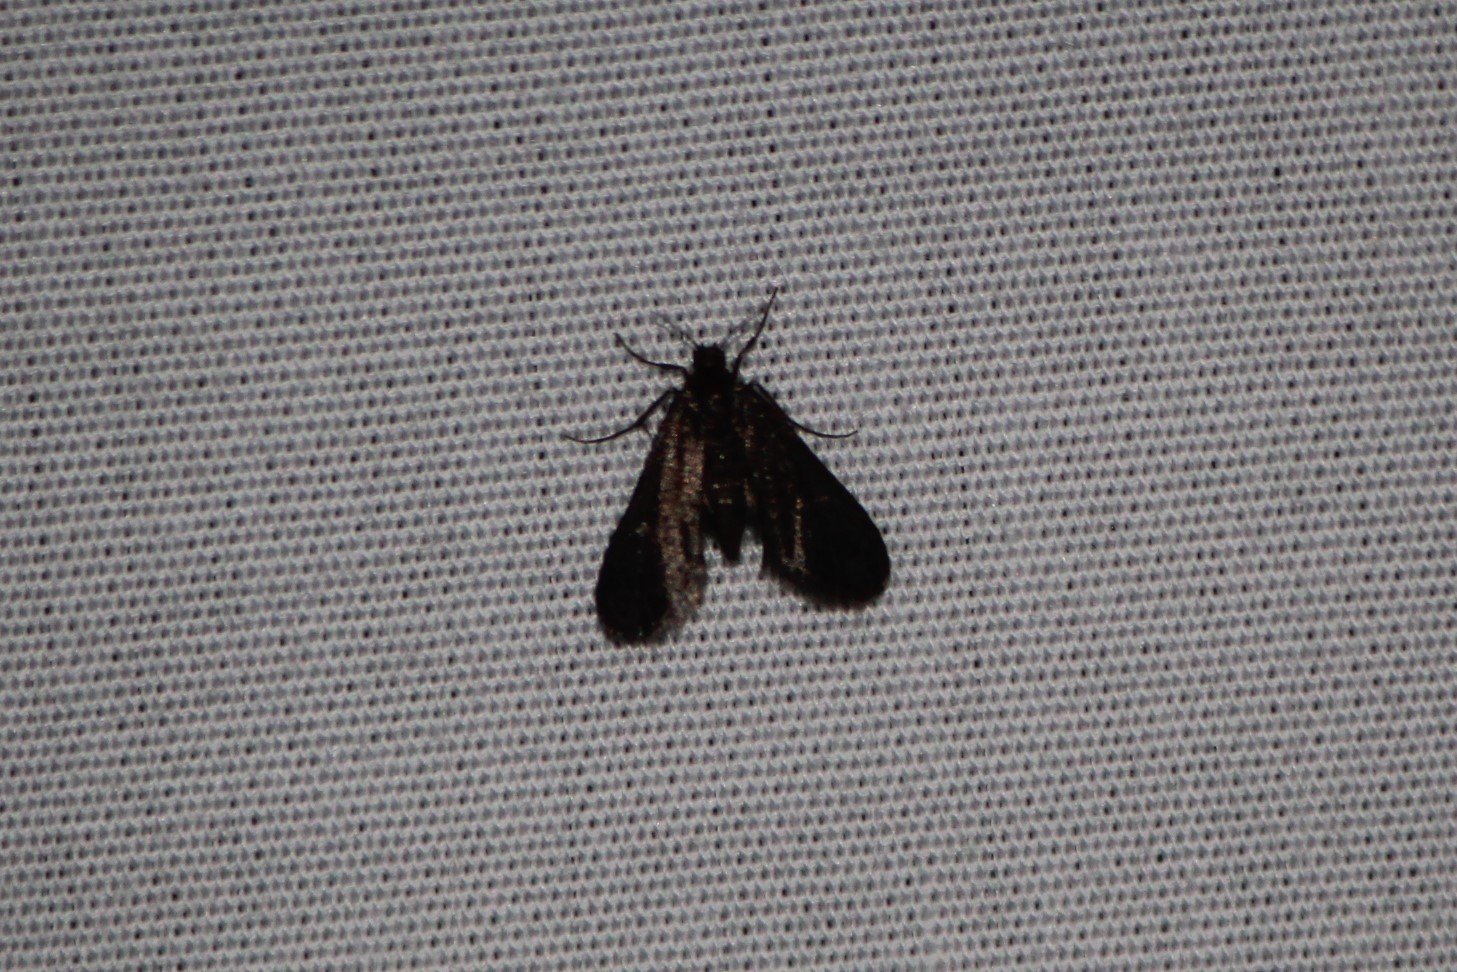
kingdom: Animalia
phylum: Arthropoda
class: Insecta
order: Lepidoptera
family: Crambidae
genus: Elophila
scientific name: Elophila tinealis
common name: Black duckweed moth
